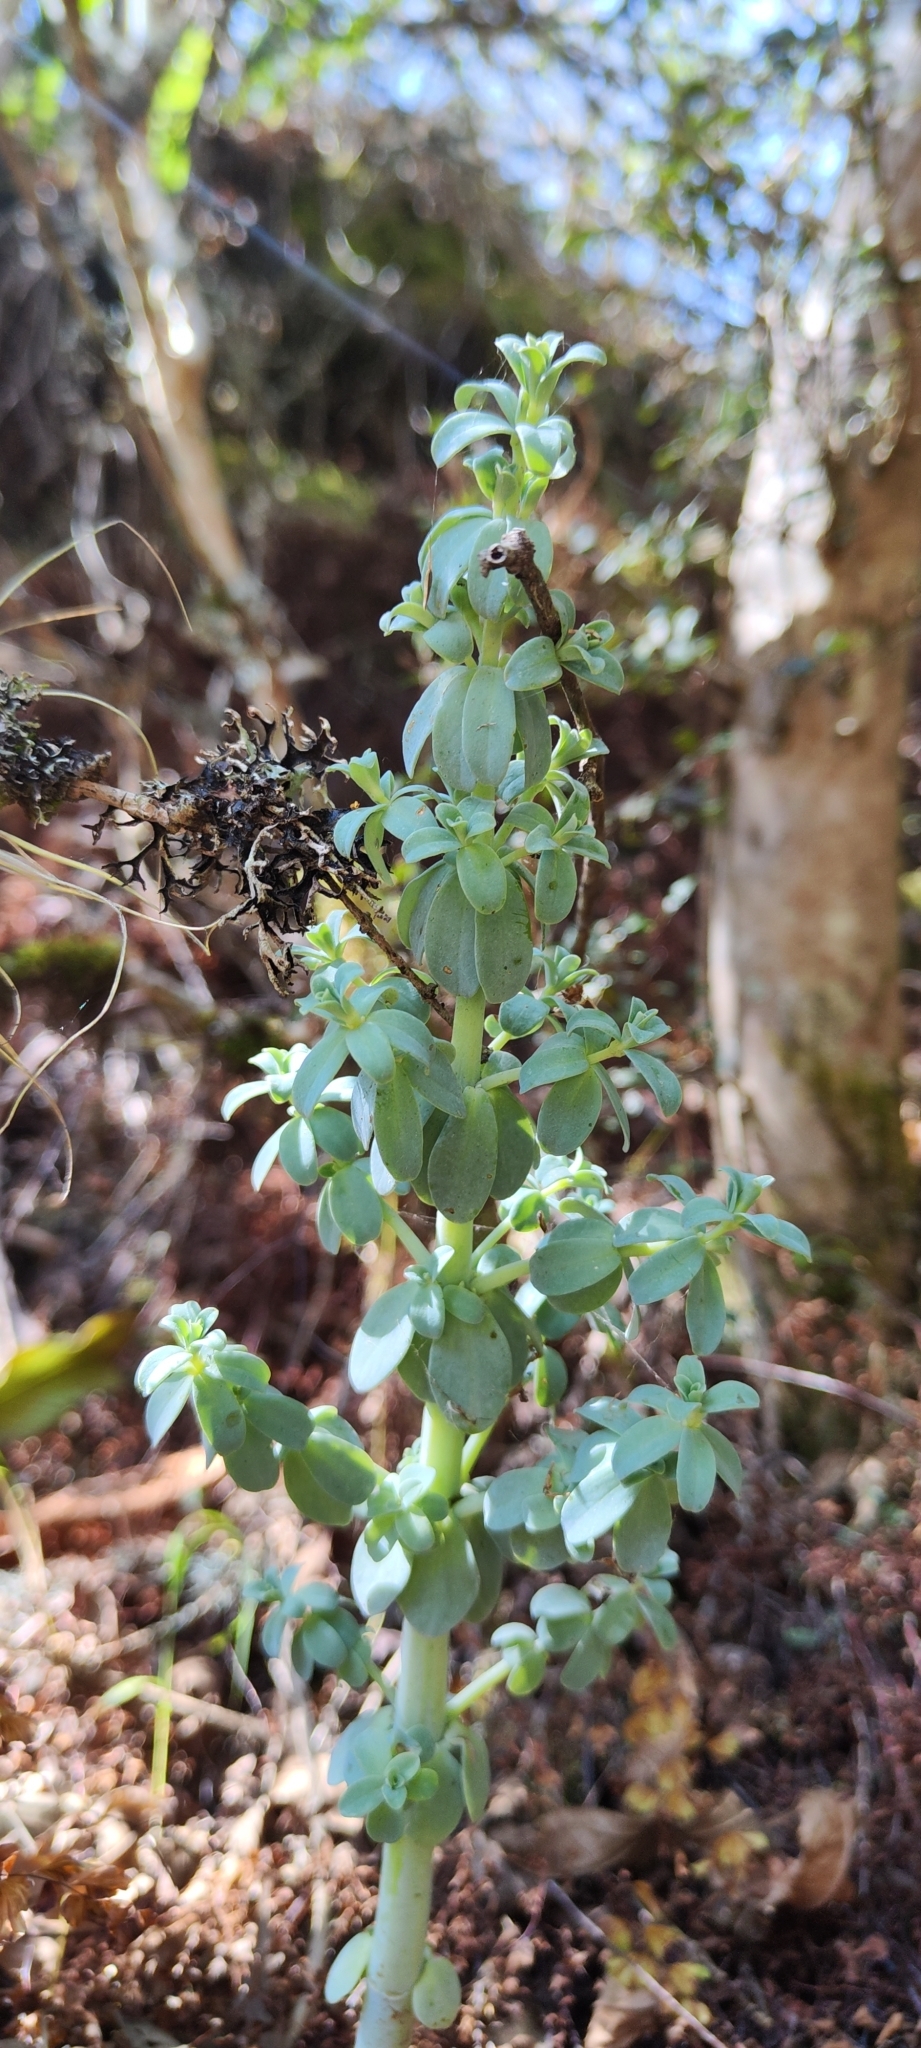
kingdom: Plantae
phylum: Tracheophyta
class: Magnoliopsida
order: Piperales
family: Piperaceae
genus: Peperomia
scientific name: Peperomia galioides
